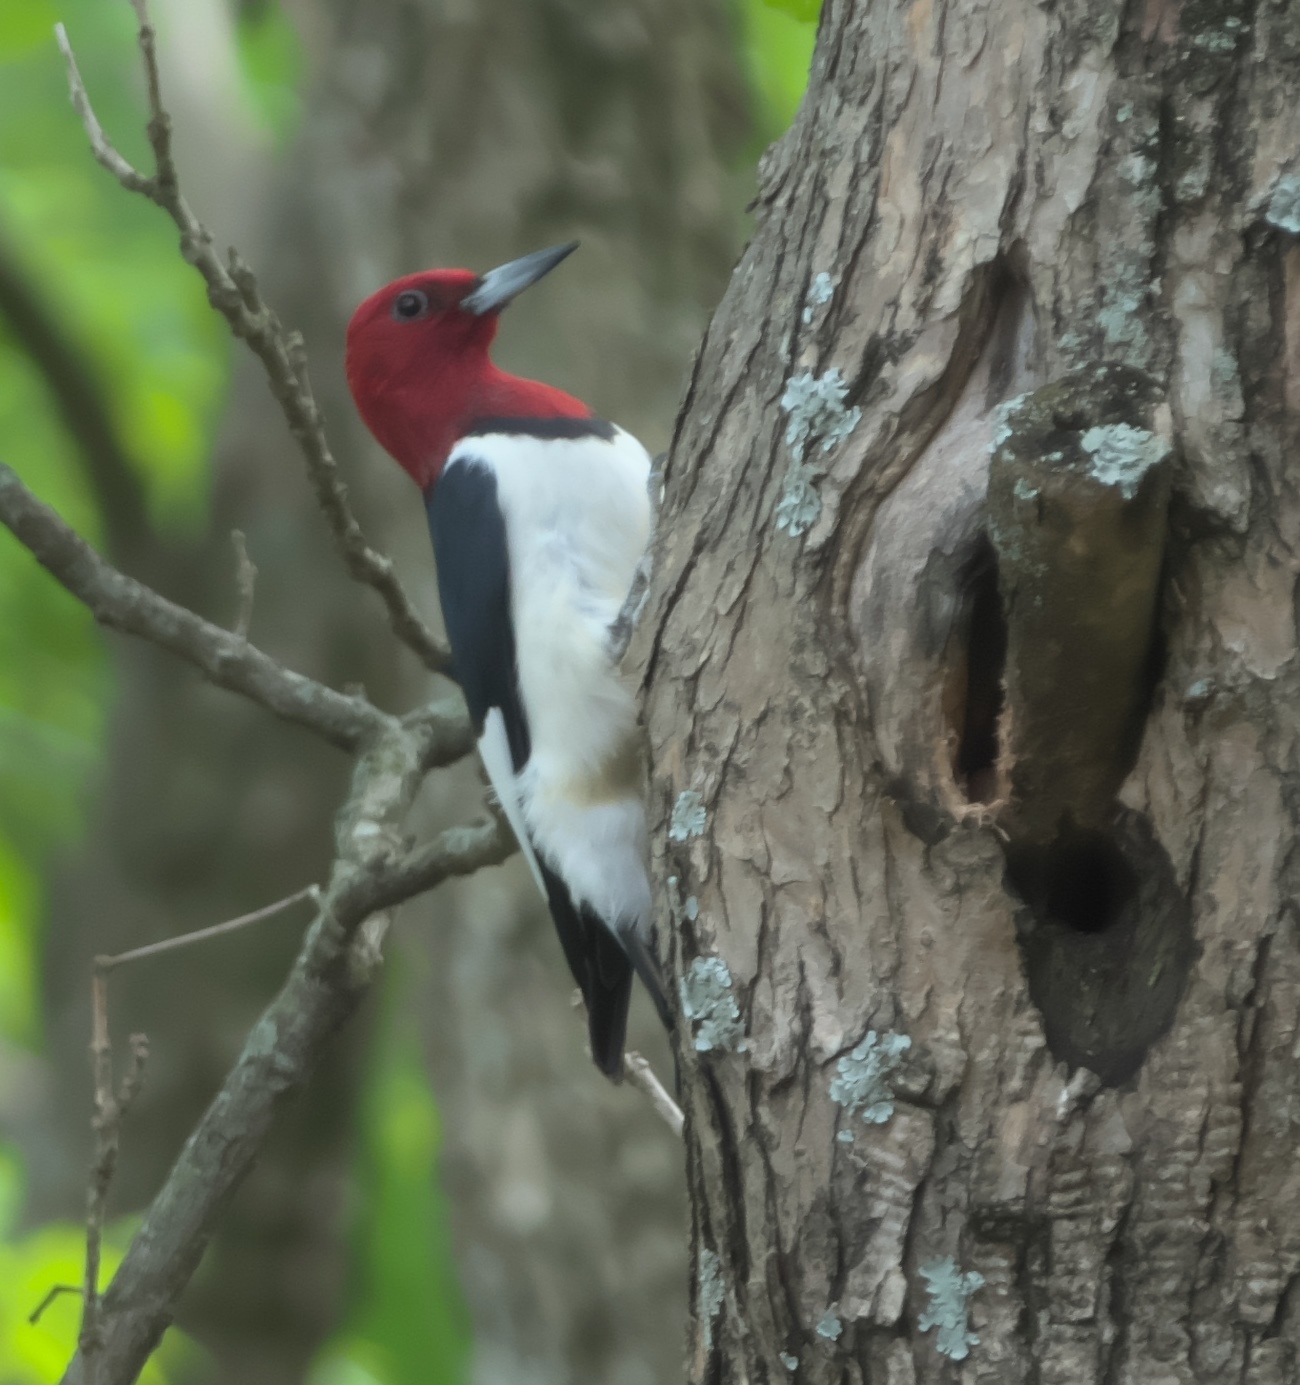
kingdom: Animalia
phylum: Chordata
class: Aves
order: Piciformes
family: Picidae
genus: Melanerpes
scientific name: Melanerpes erythrocephalus
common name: Red-headed woodpecker
